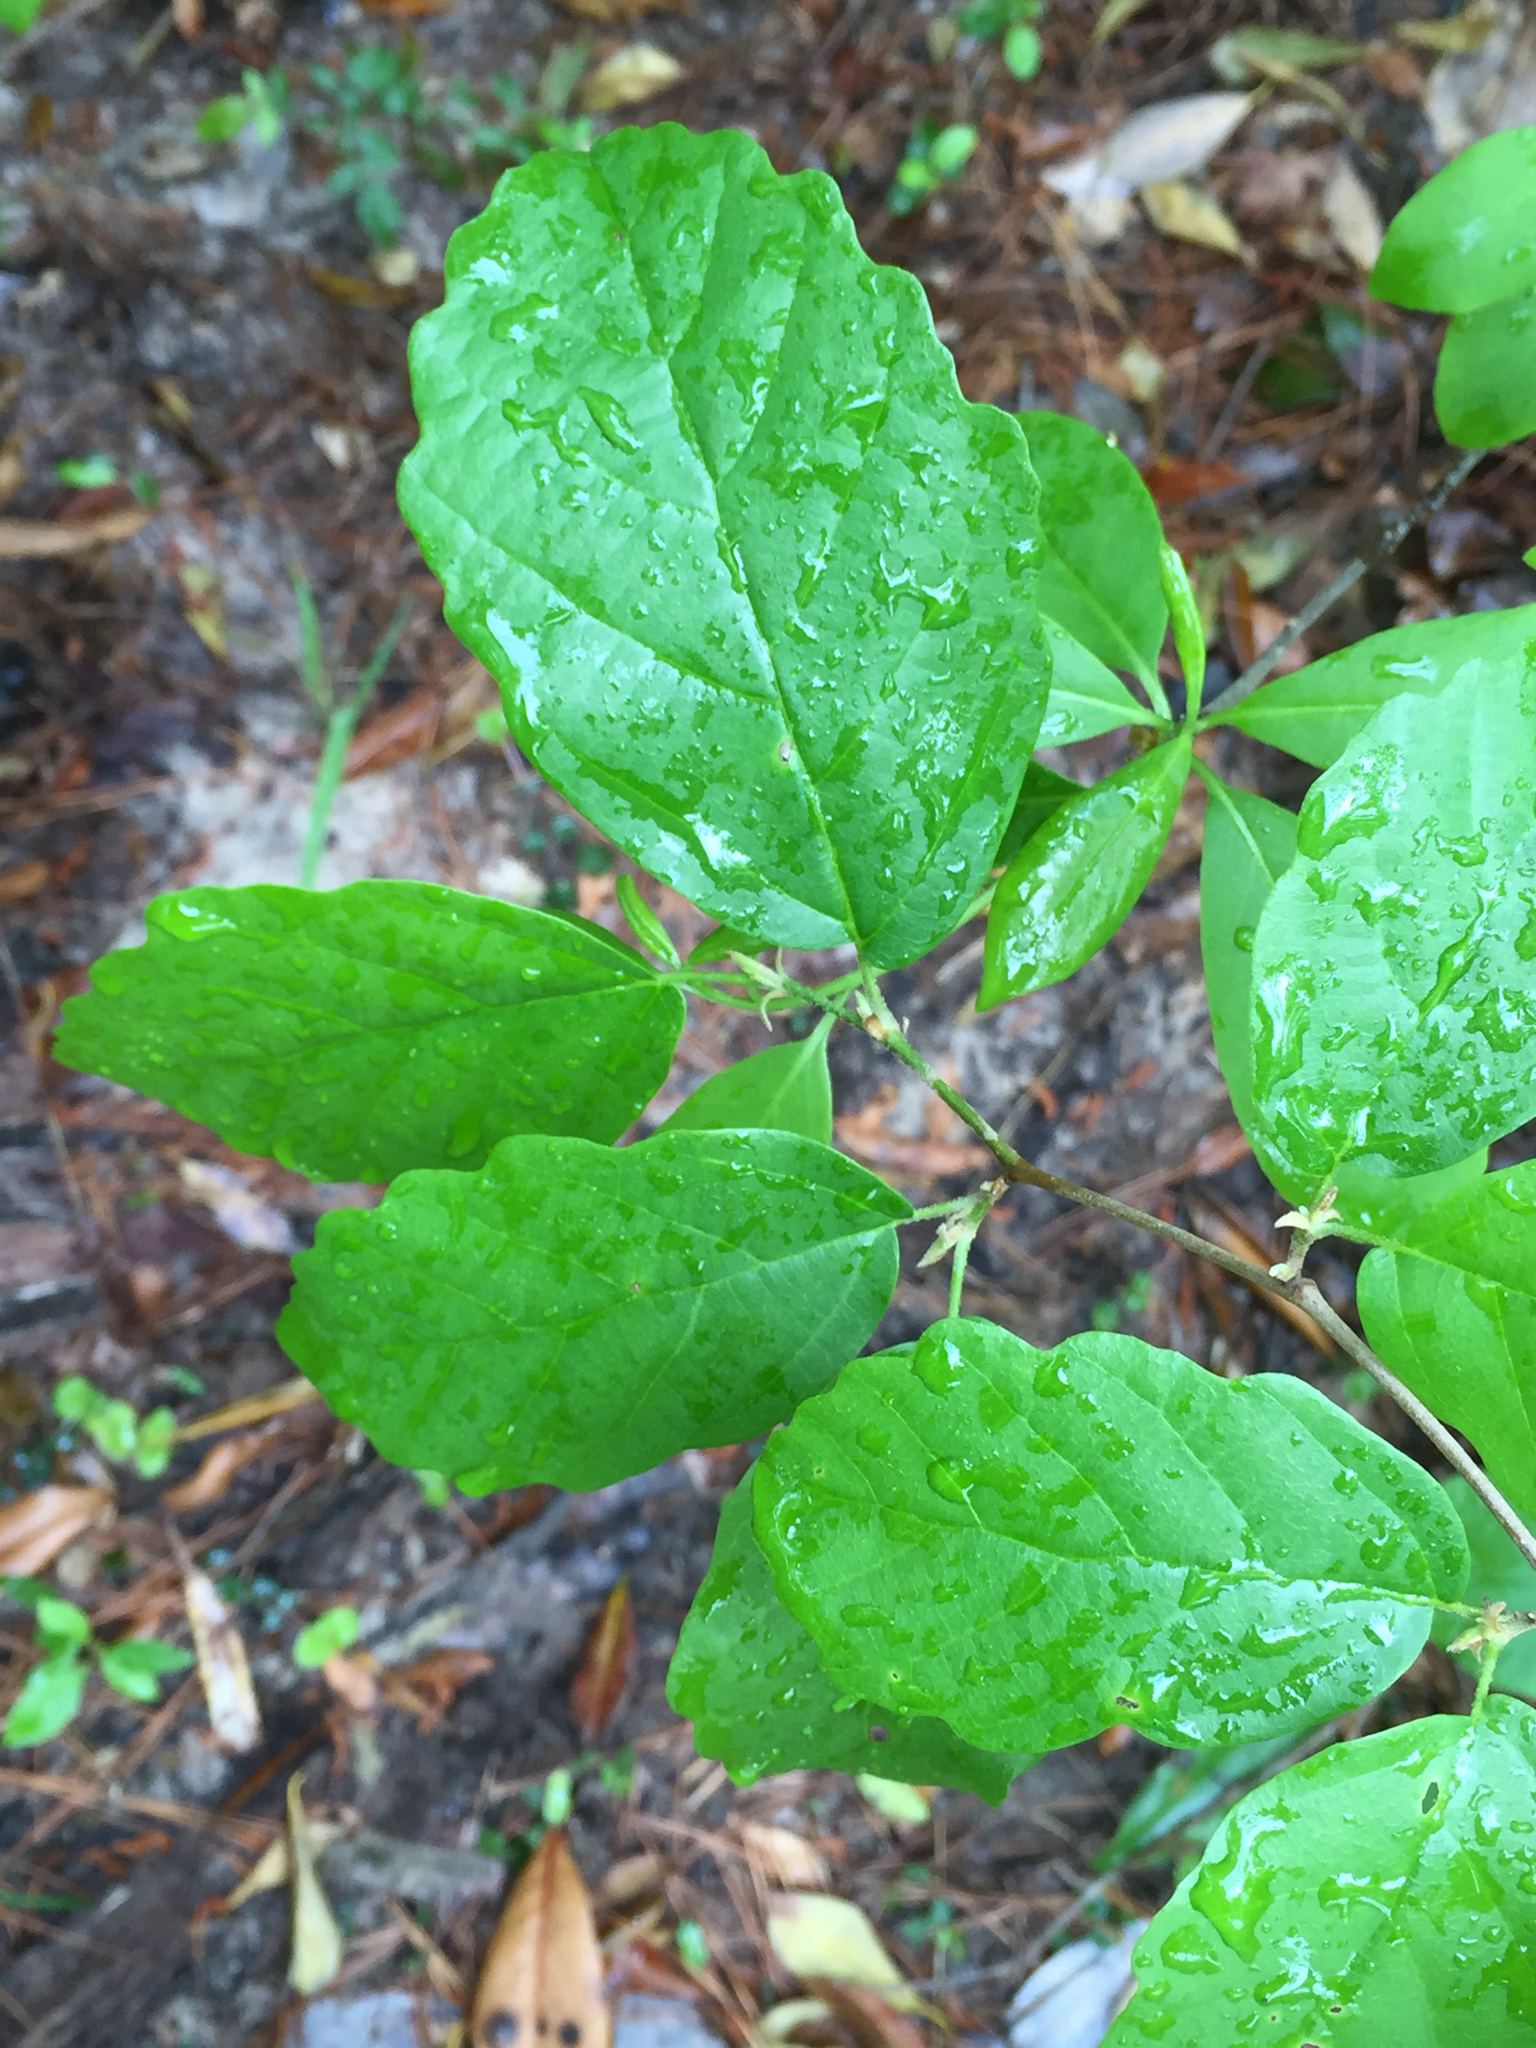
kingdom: Plantae
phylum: Tracheophyta
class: Magnoliopsida
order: Saxifragales
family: Hamamelidaceae
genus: Hamamelis
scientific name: Hamamelis virginiana
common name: Witch-hazel
